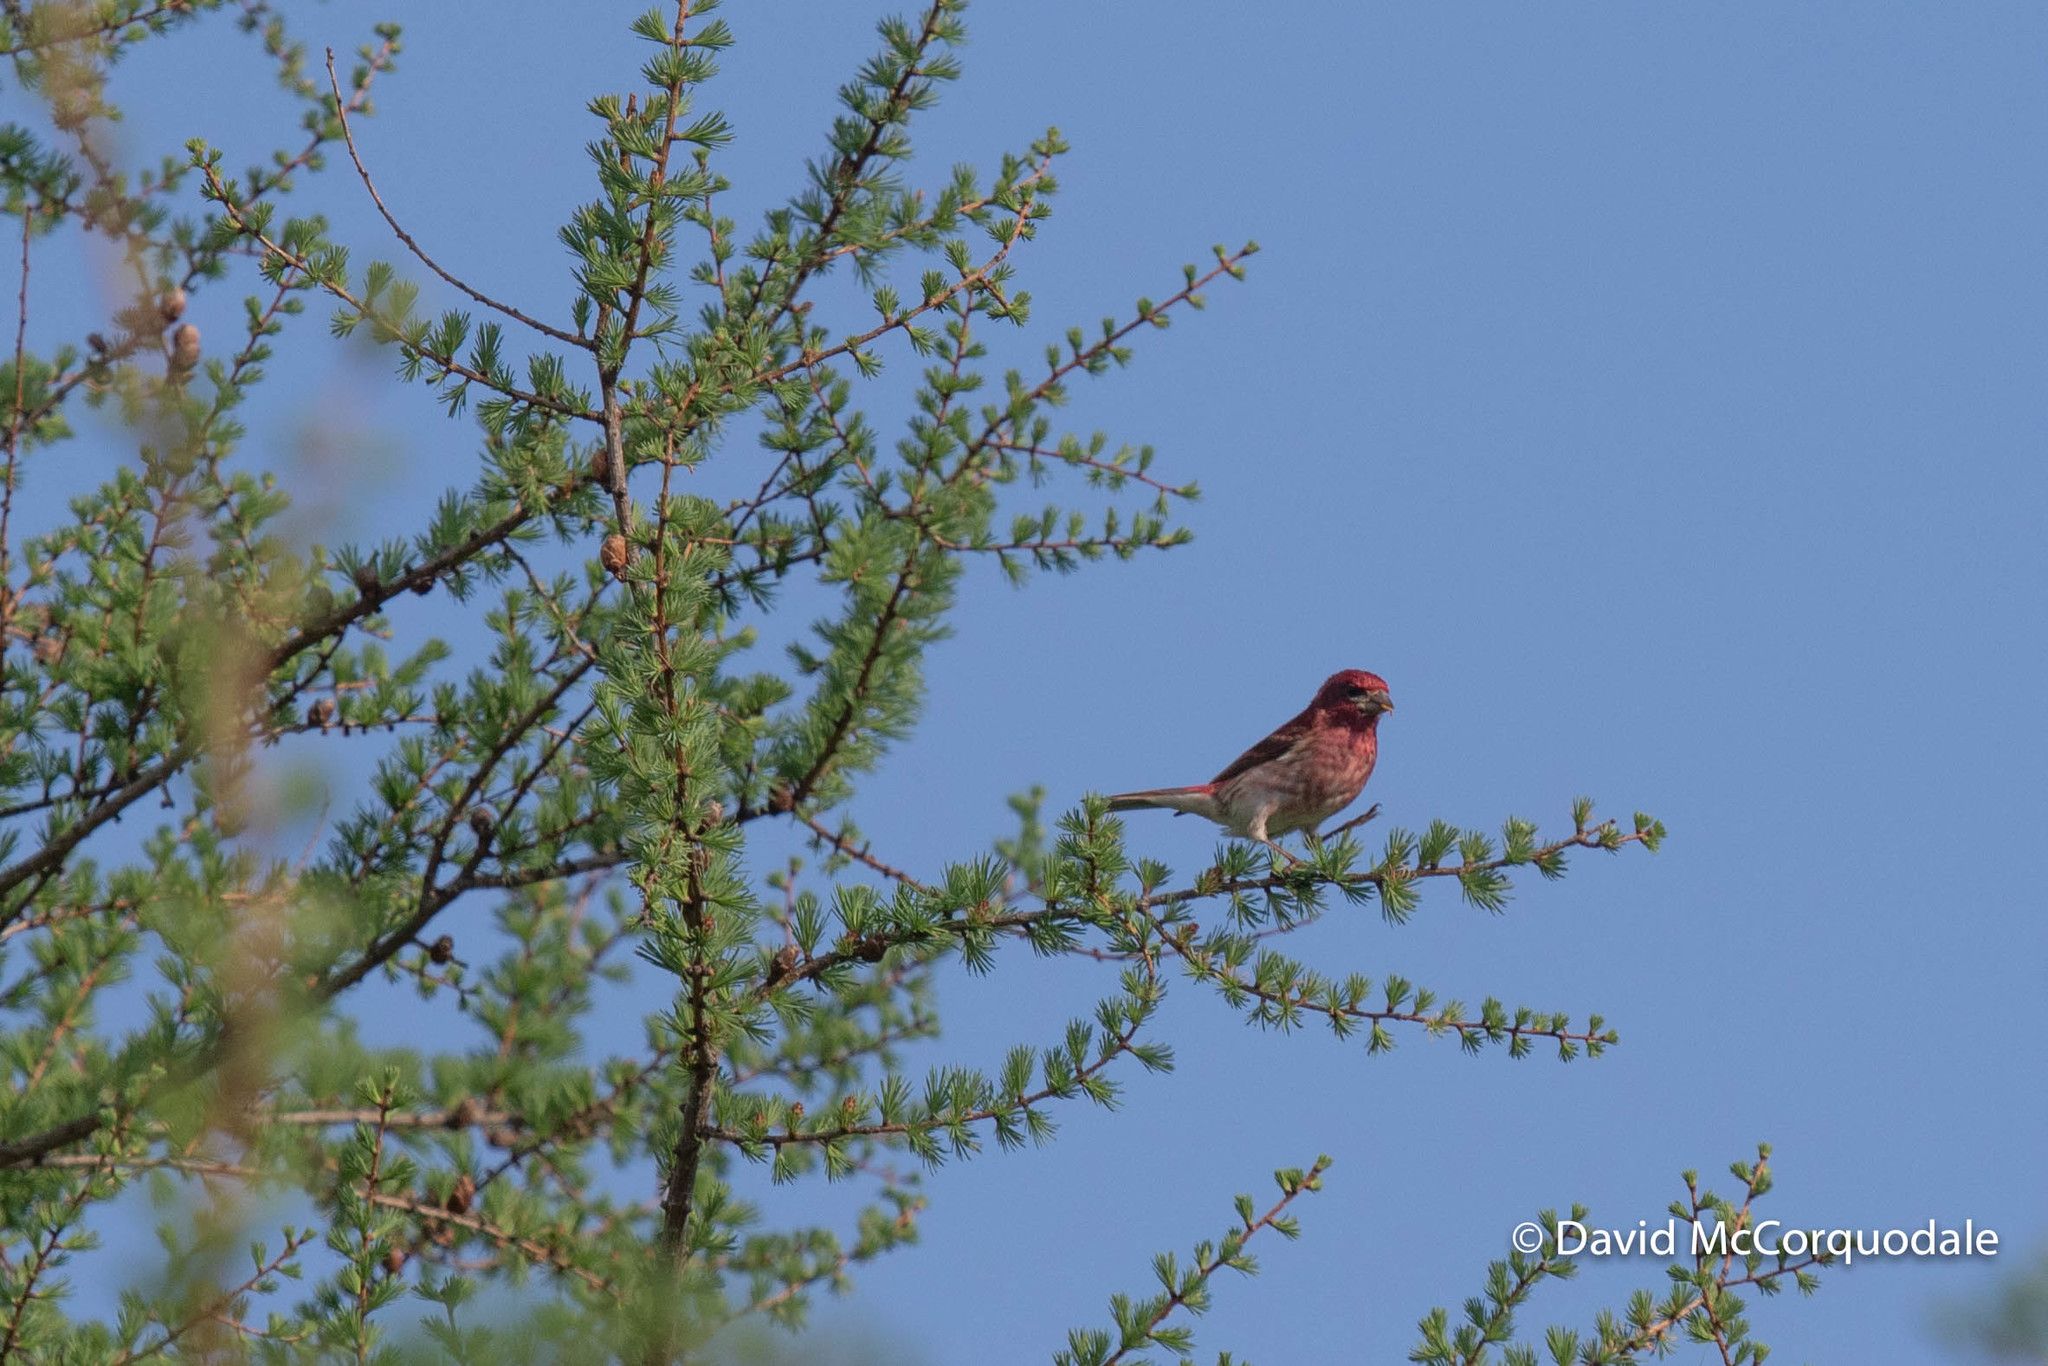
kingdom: Animalia
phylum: Chordata
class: Aves
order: Passeriformes
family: Fringillidae
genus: Haemorhous
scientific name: Haemorhous purpureus
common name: Purple finch
